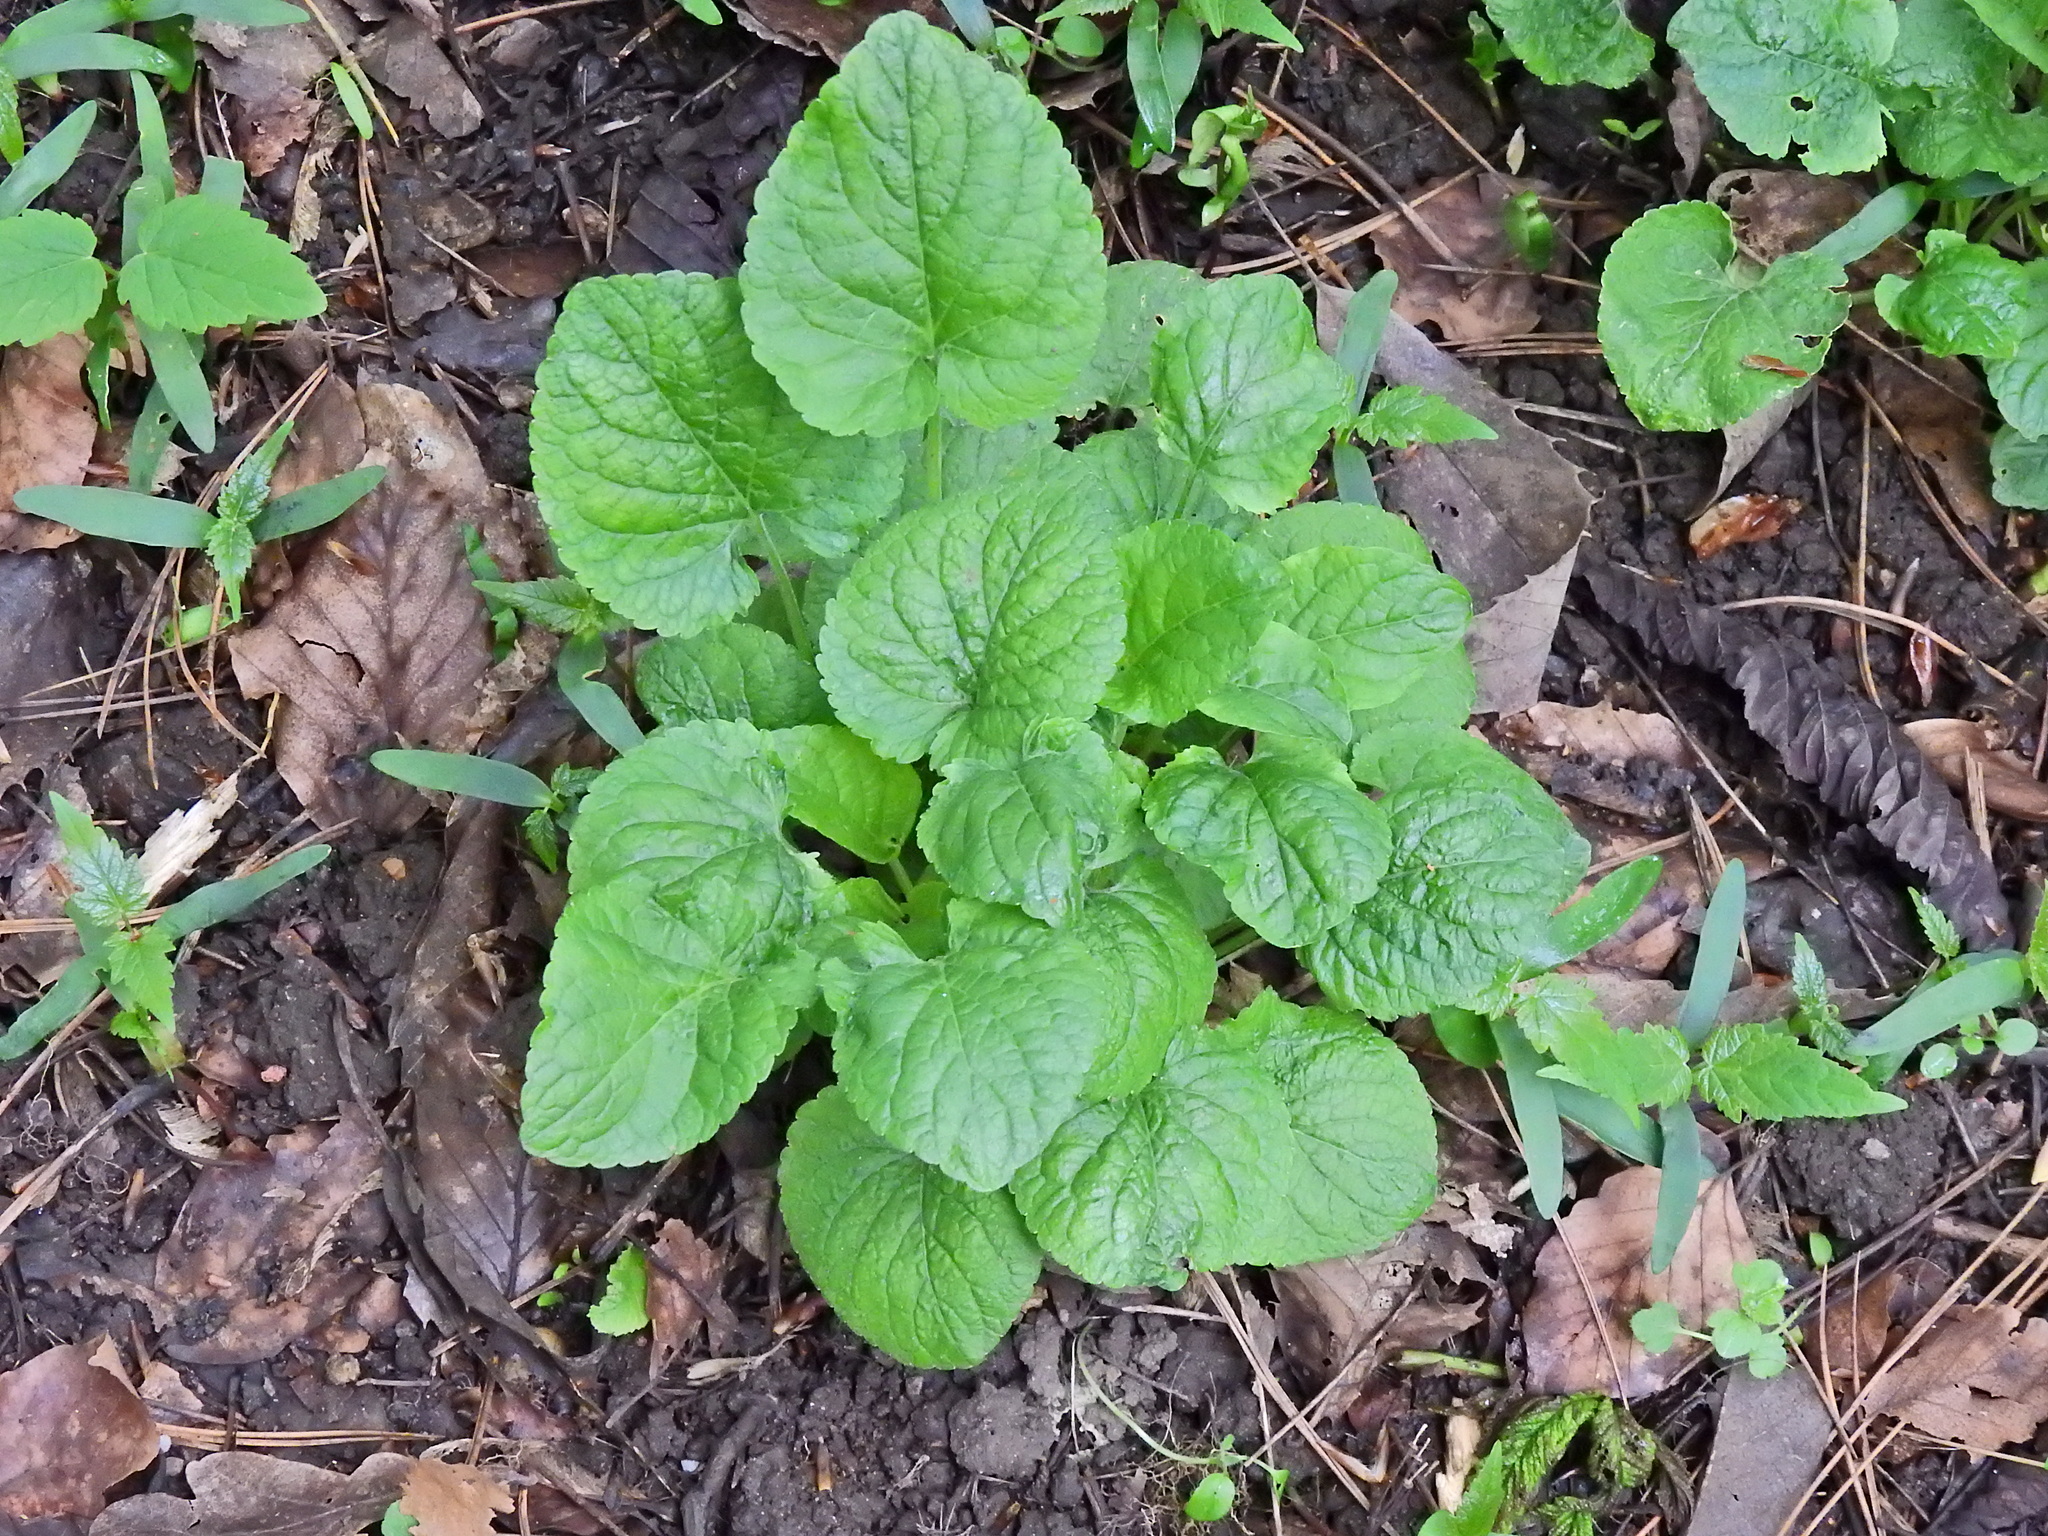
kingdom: Plantae
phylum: Tracheophyta
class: Magnoliopsida
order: Malpighiales
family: Violaceae
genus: Viola
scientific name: Viola odorata
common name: Sweet violet
